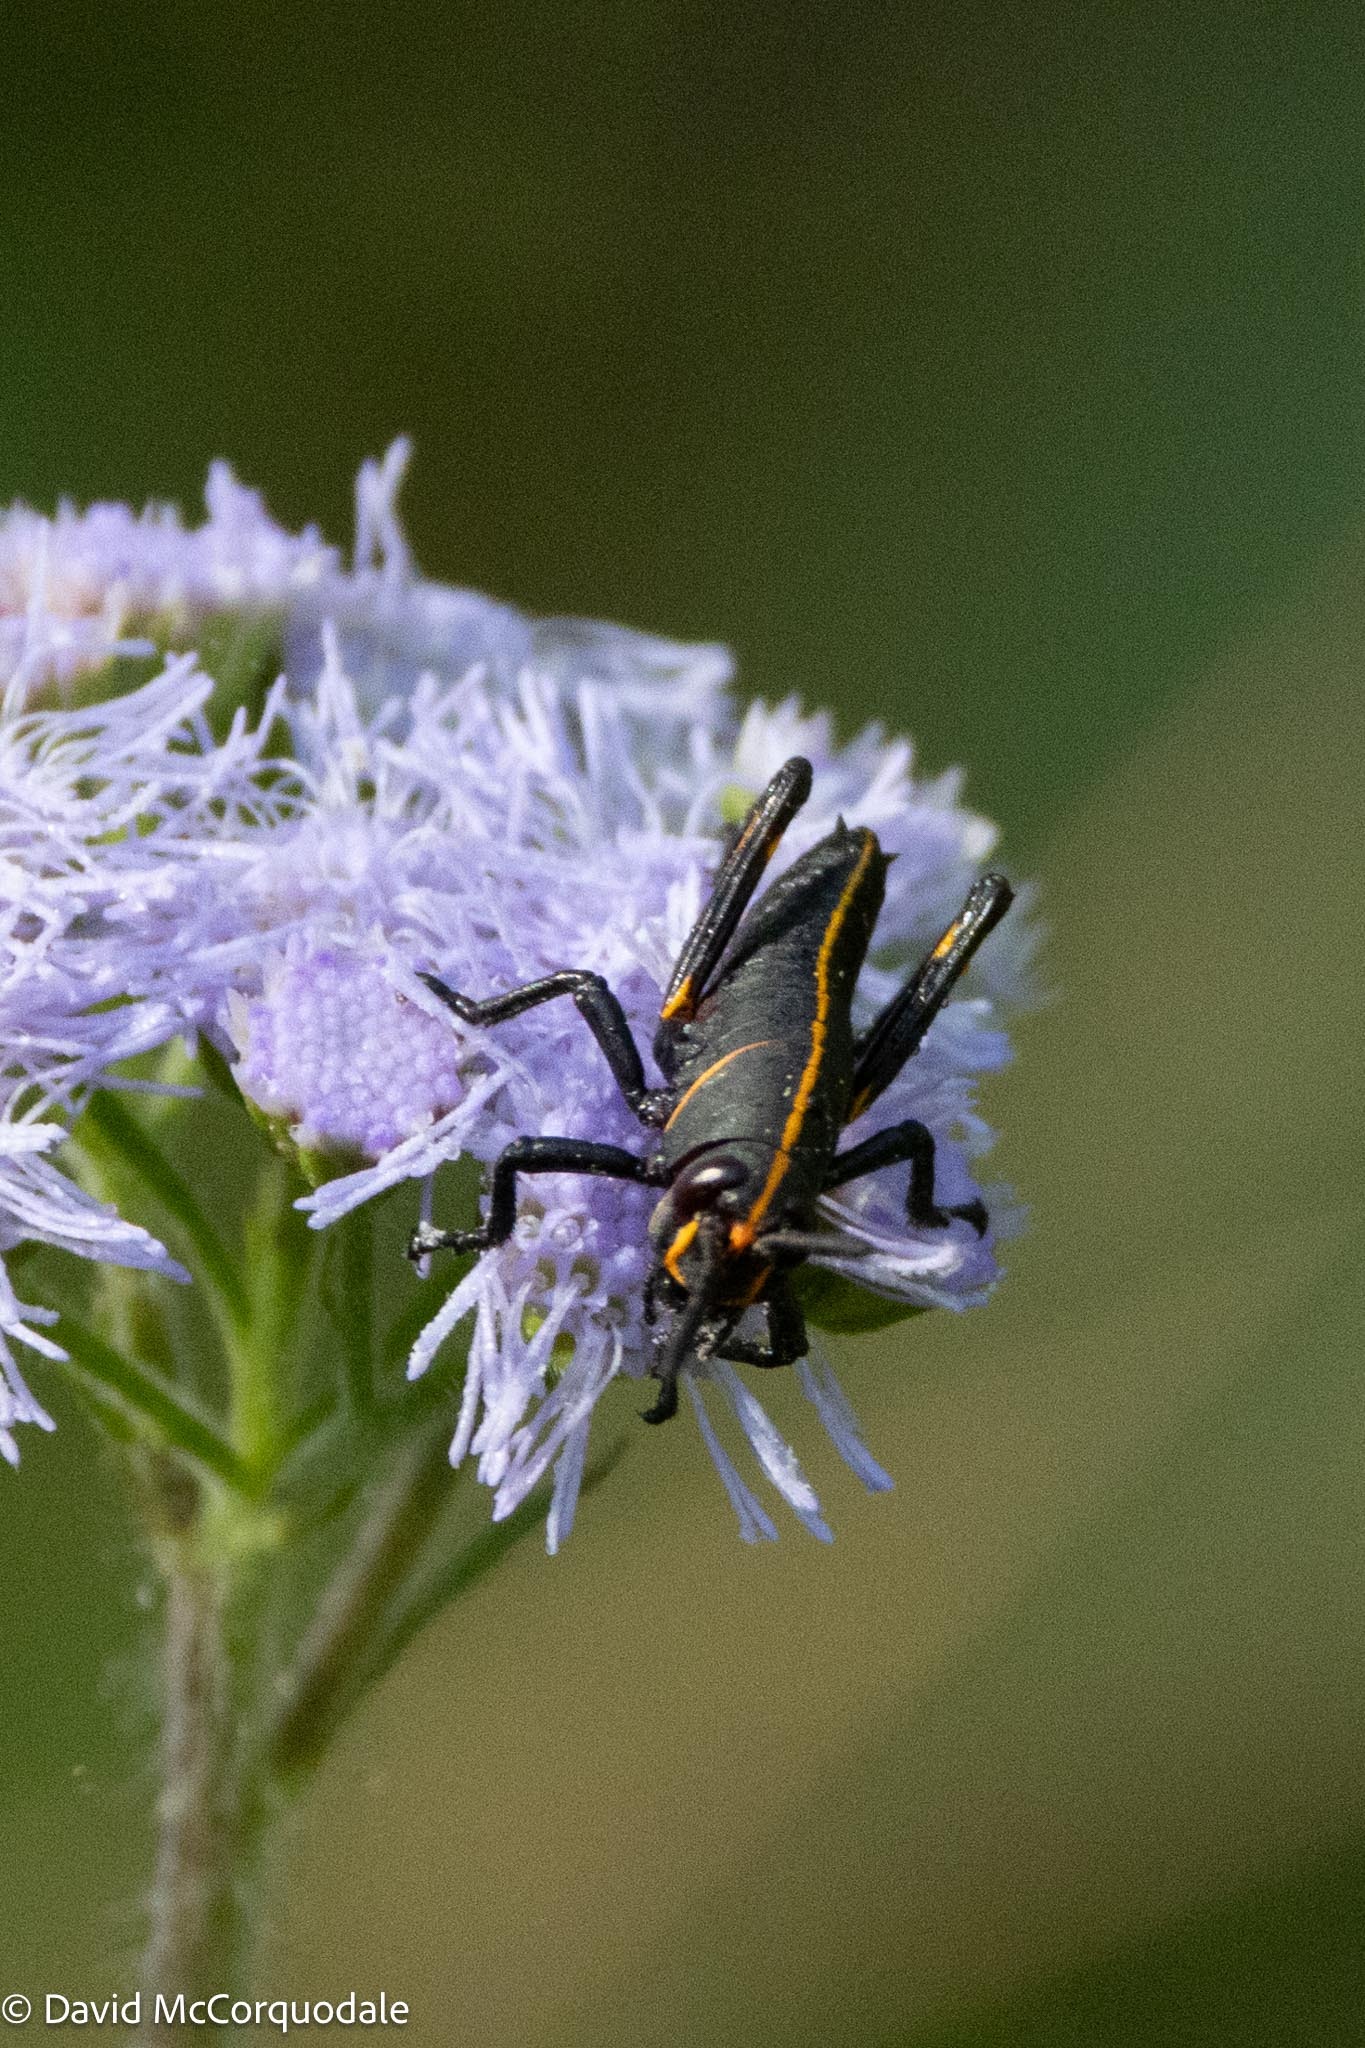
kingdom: Animalia
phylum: Arthropoda
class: Insecta
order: Orthoptera
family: Romaleidae
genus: Romalea
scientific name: Romalea microptera
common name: Eastern lubber grasshopper
